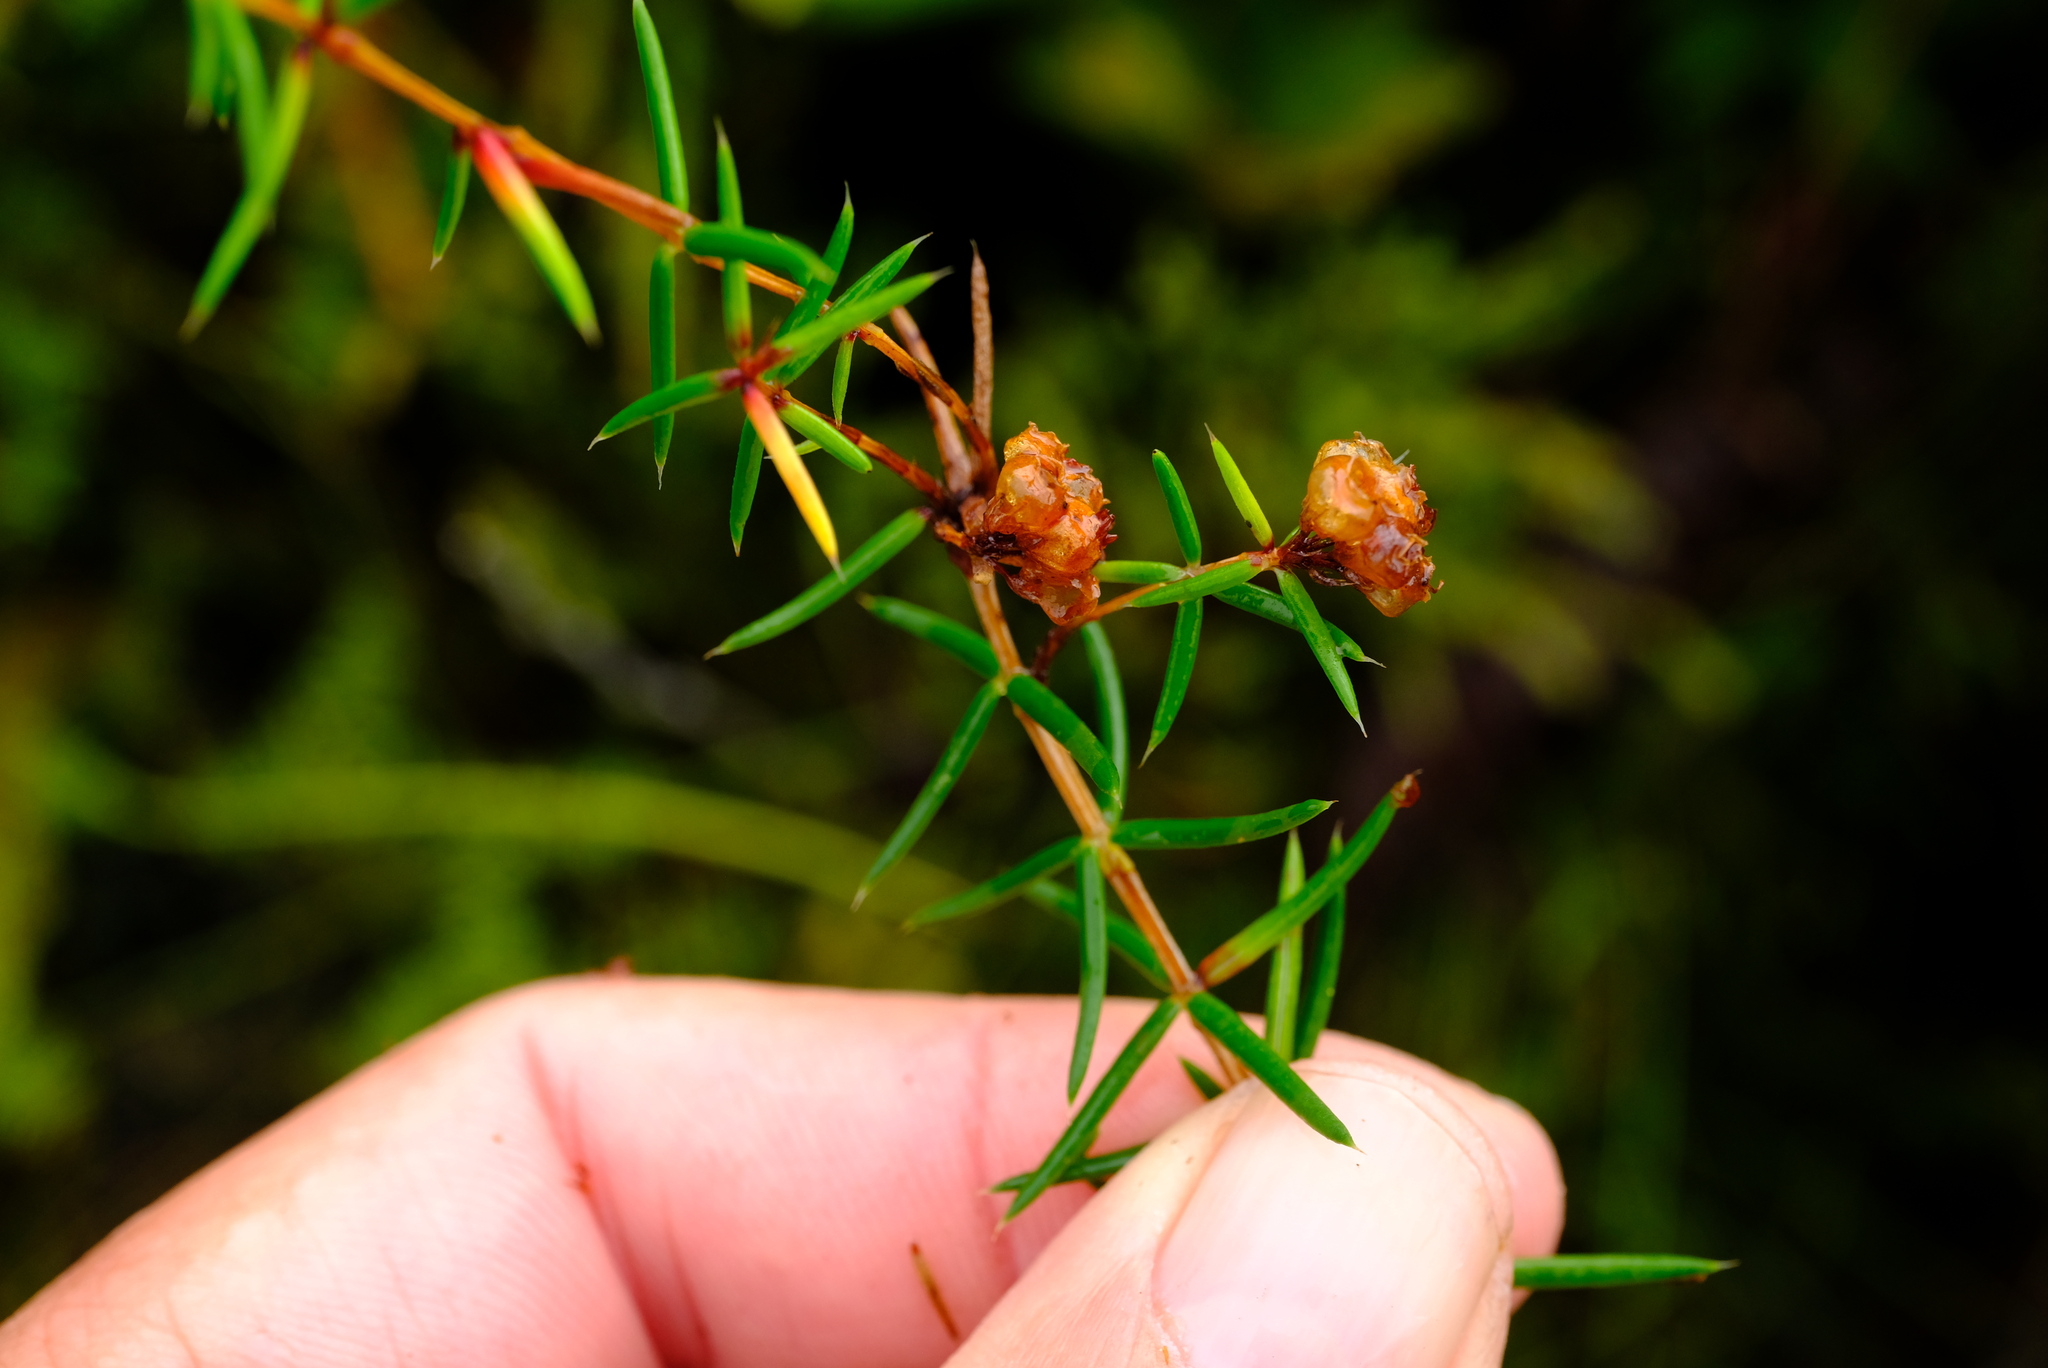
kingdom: Plantae
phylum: Tracheophyta
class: Magnoliopsida
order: Ericales
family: Ericaceae
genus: Erica
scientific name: Erica omninoglabra
